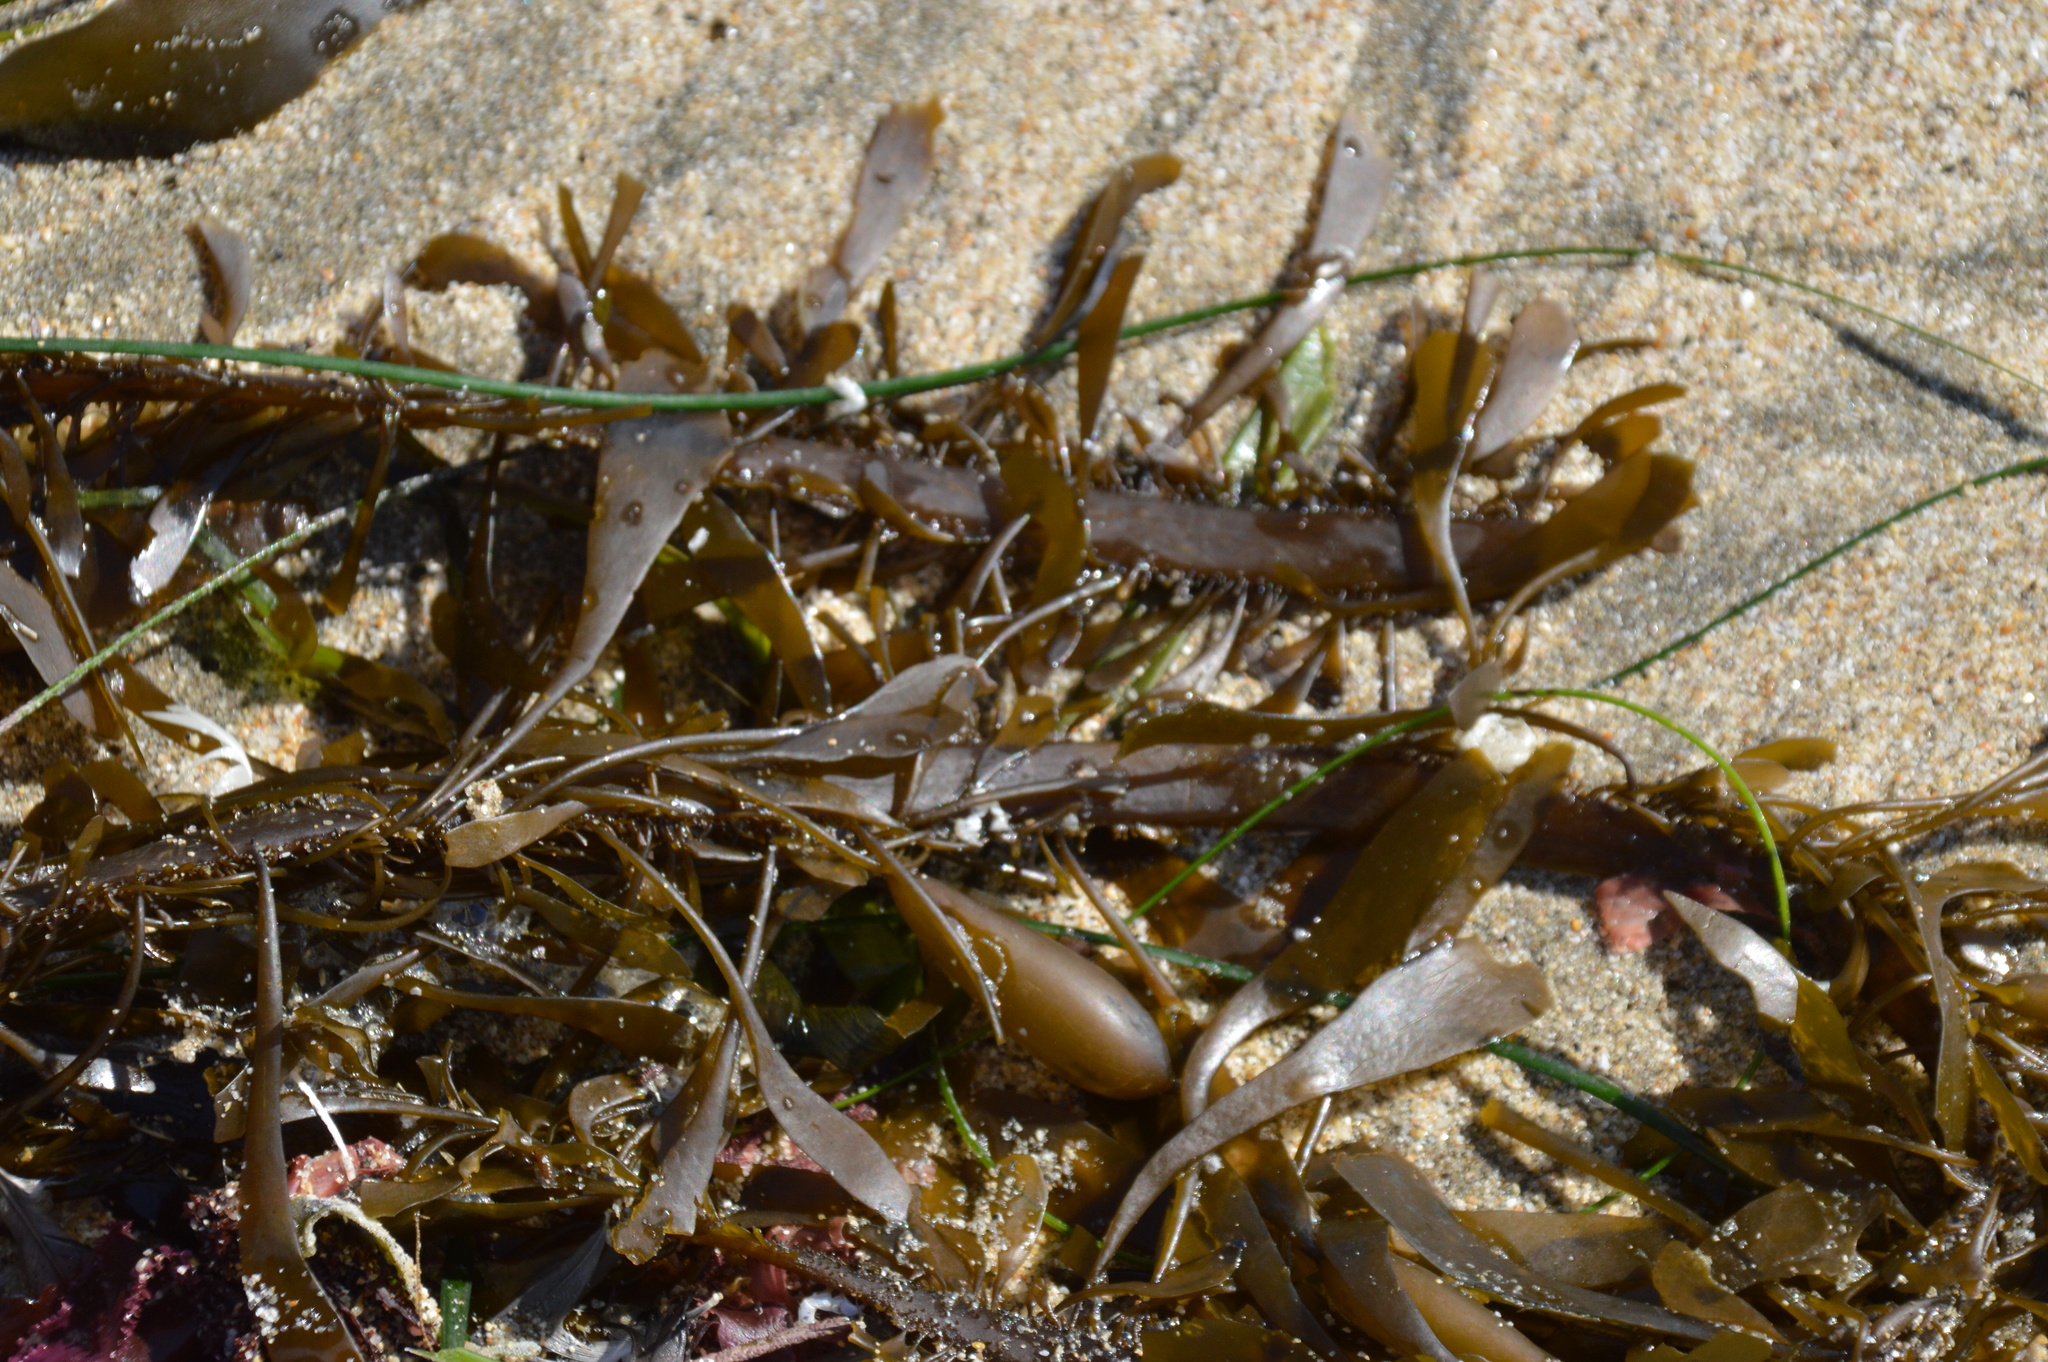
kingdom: Chromista
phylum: Ochrophyta
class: Phaeophyceae
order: Laminariales
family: Lessoniaceae
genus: Egregia
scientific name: Egregia menziesii
